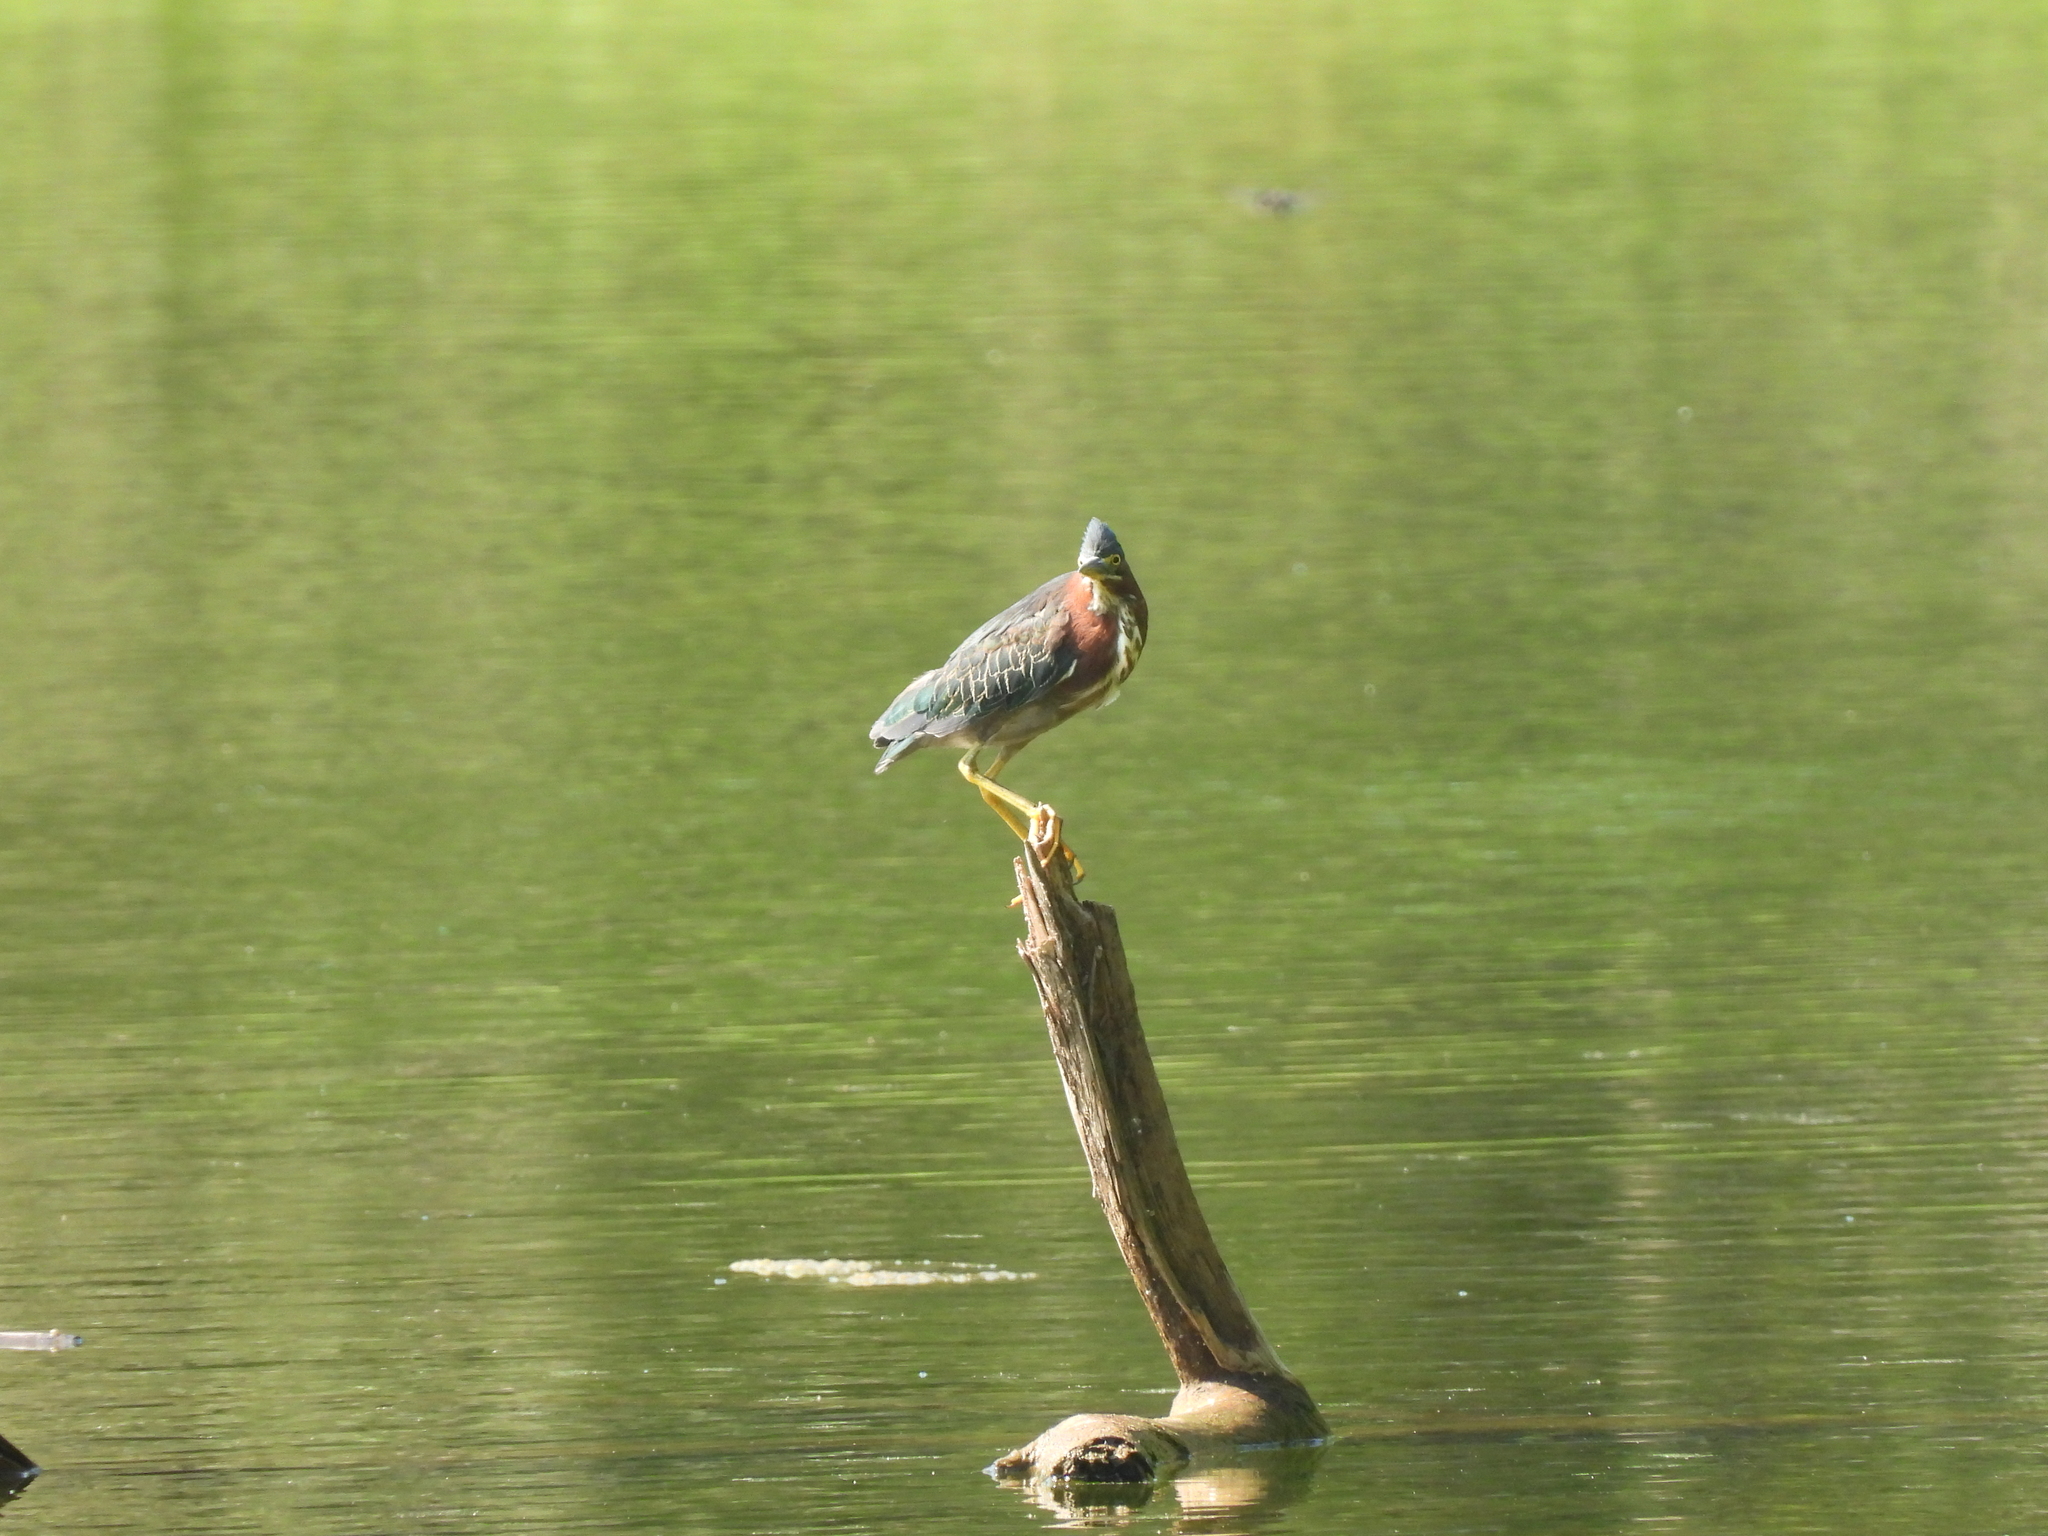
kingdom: Animalia
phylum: Chordata
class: Aves
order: Pelecaniformes
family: Ardeidae
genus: Butorides
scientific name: Butorides virescens
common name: Green heron
